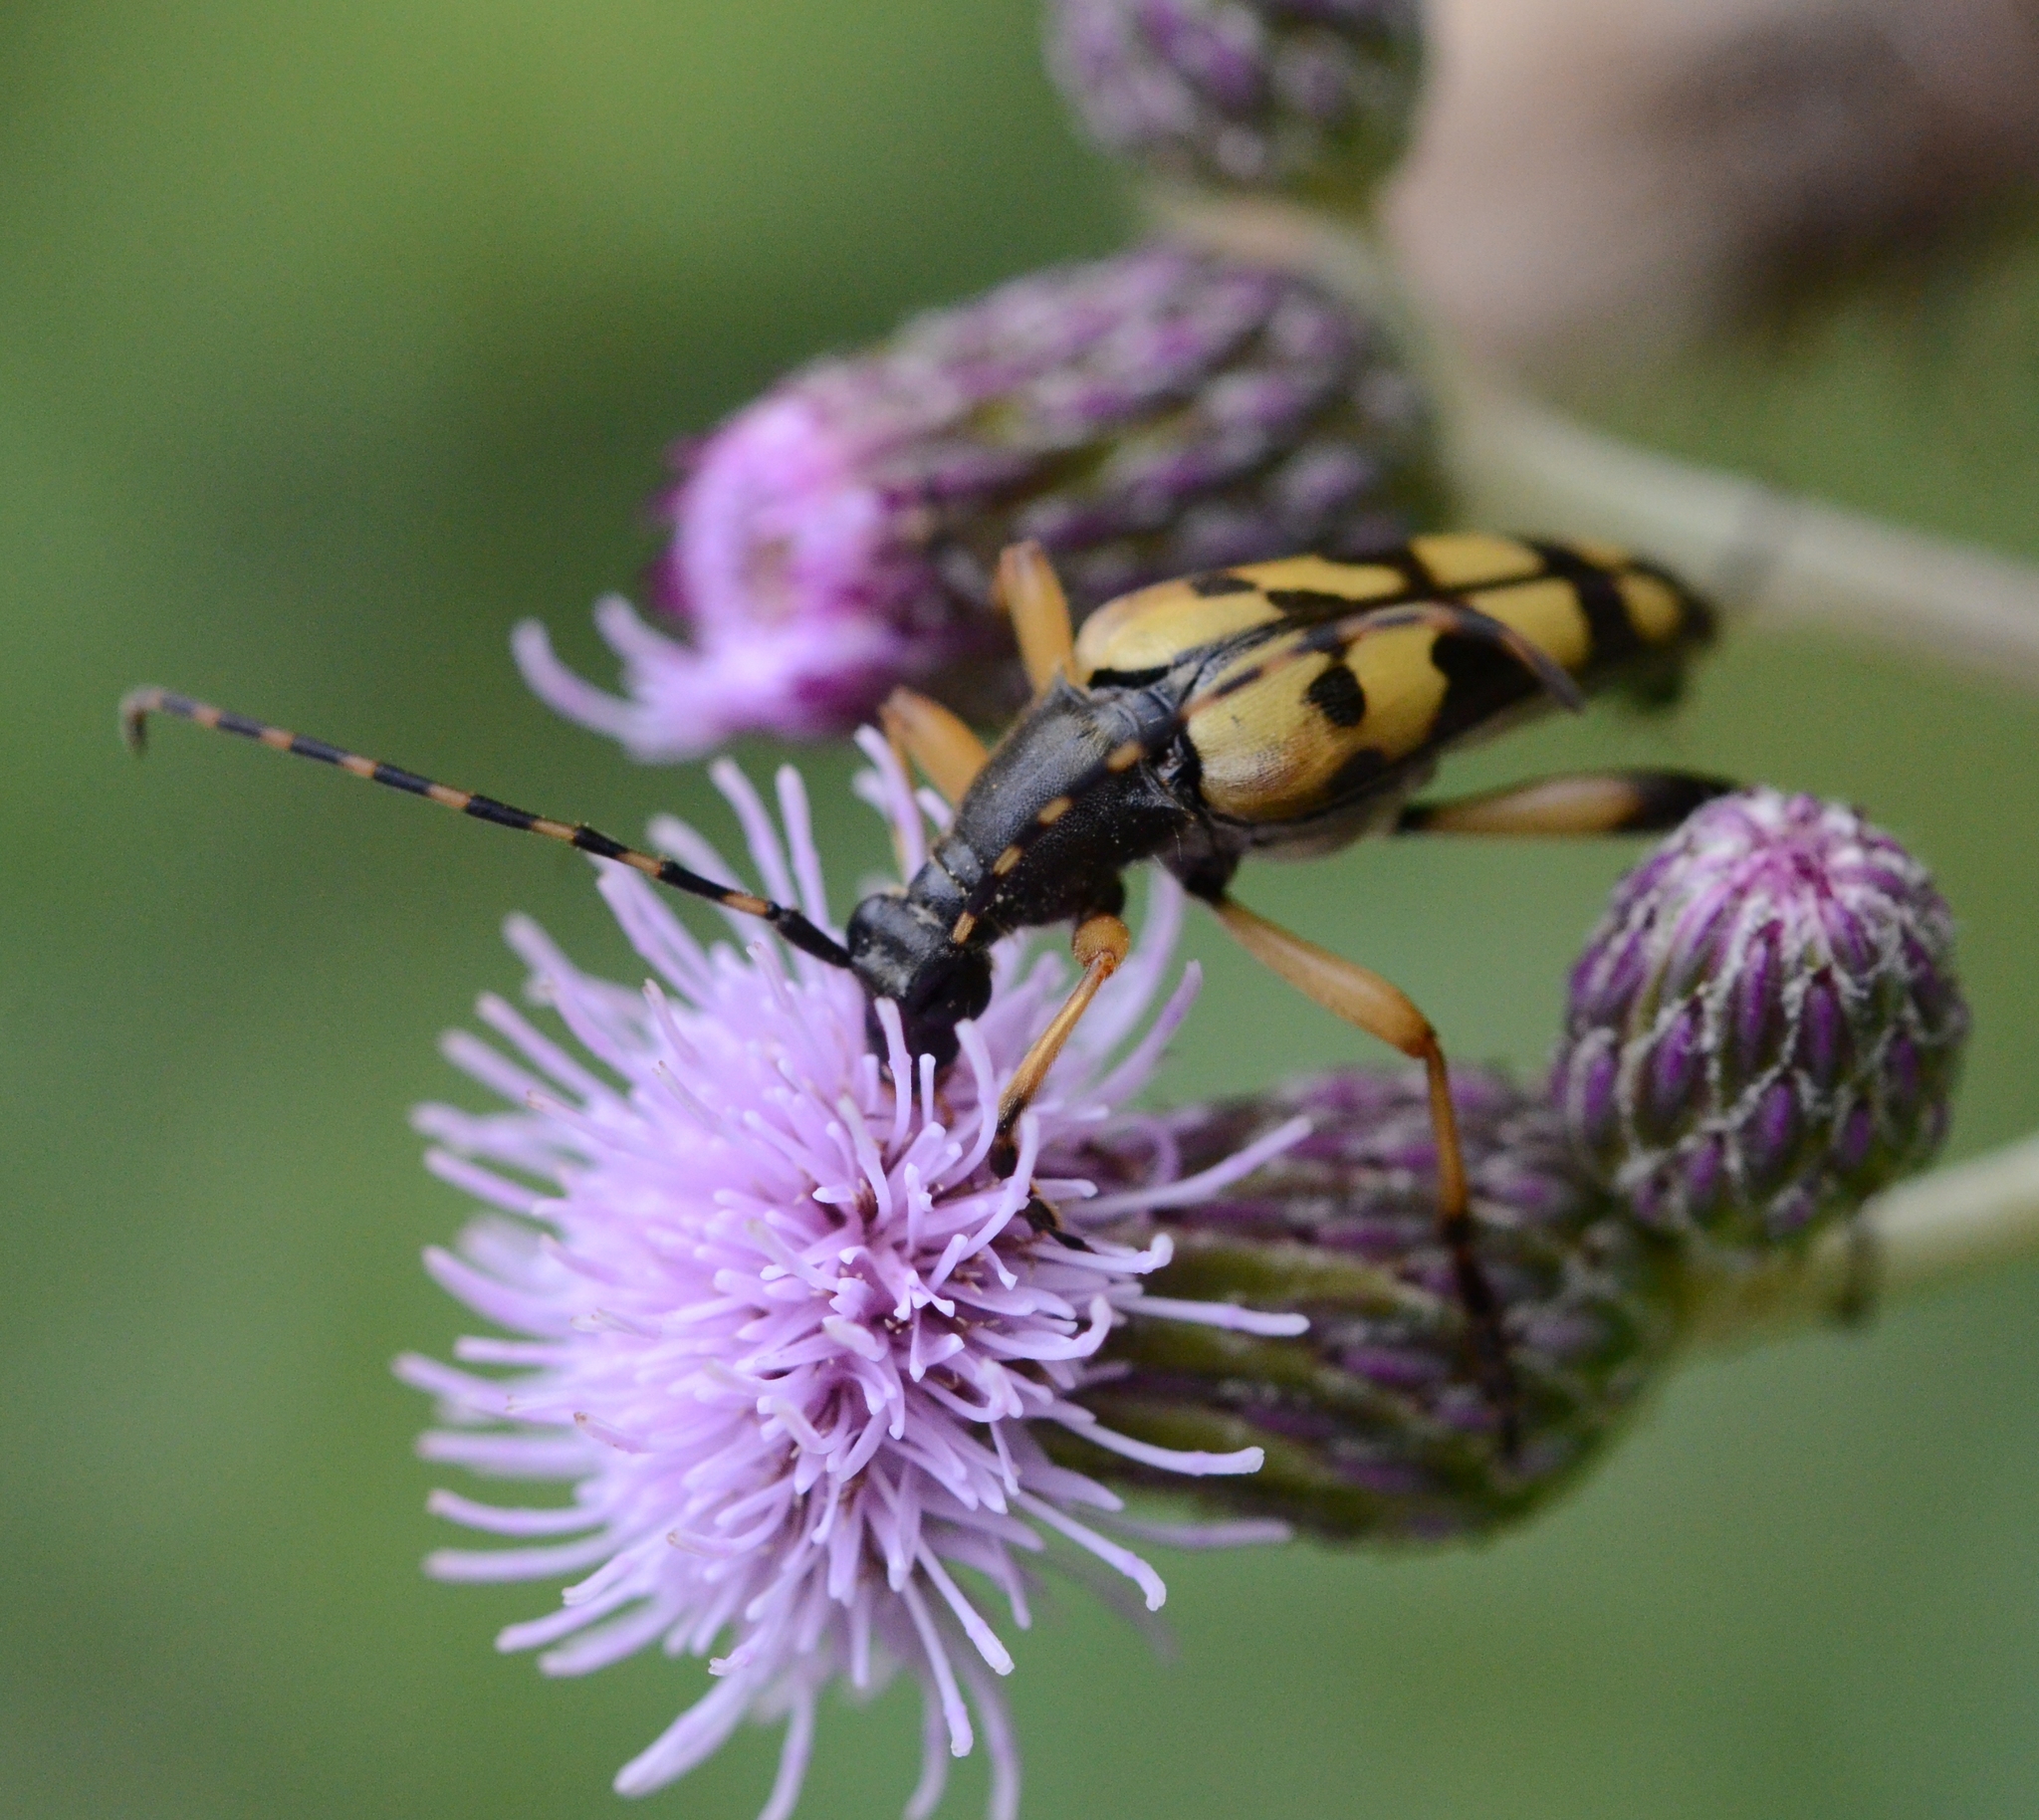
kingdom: Animalia
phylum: Arthropoda
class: Insecta
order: Coleoptera
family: Cerambycidae
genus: Rutpela
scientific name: Rutpela maculata
